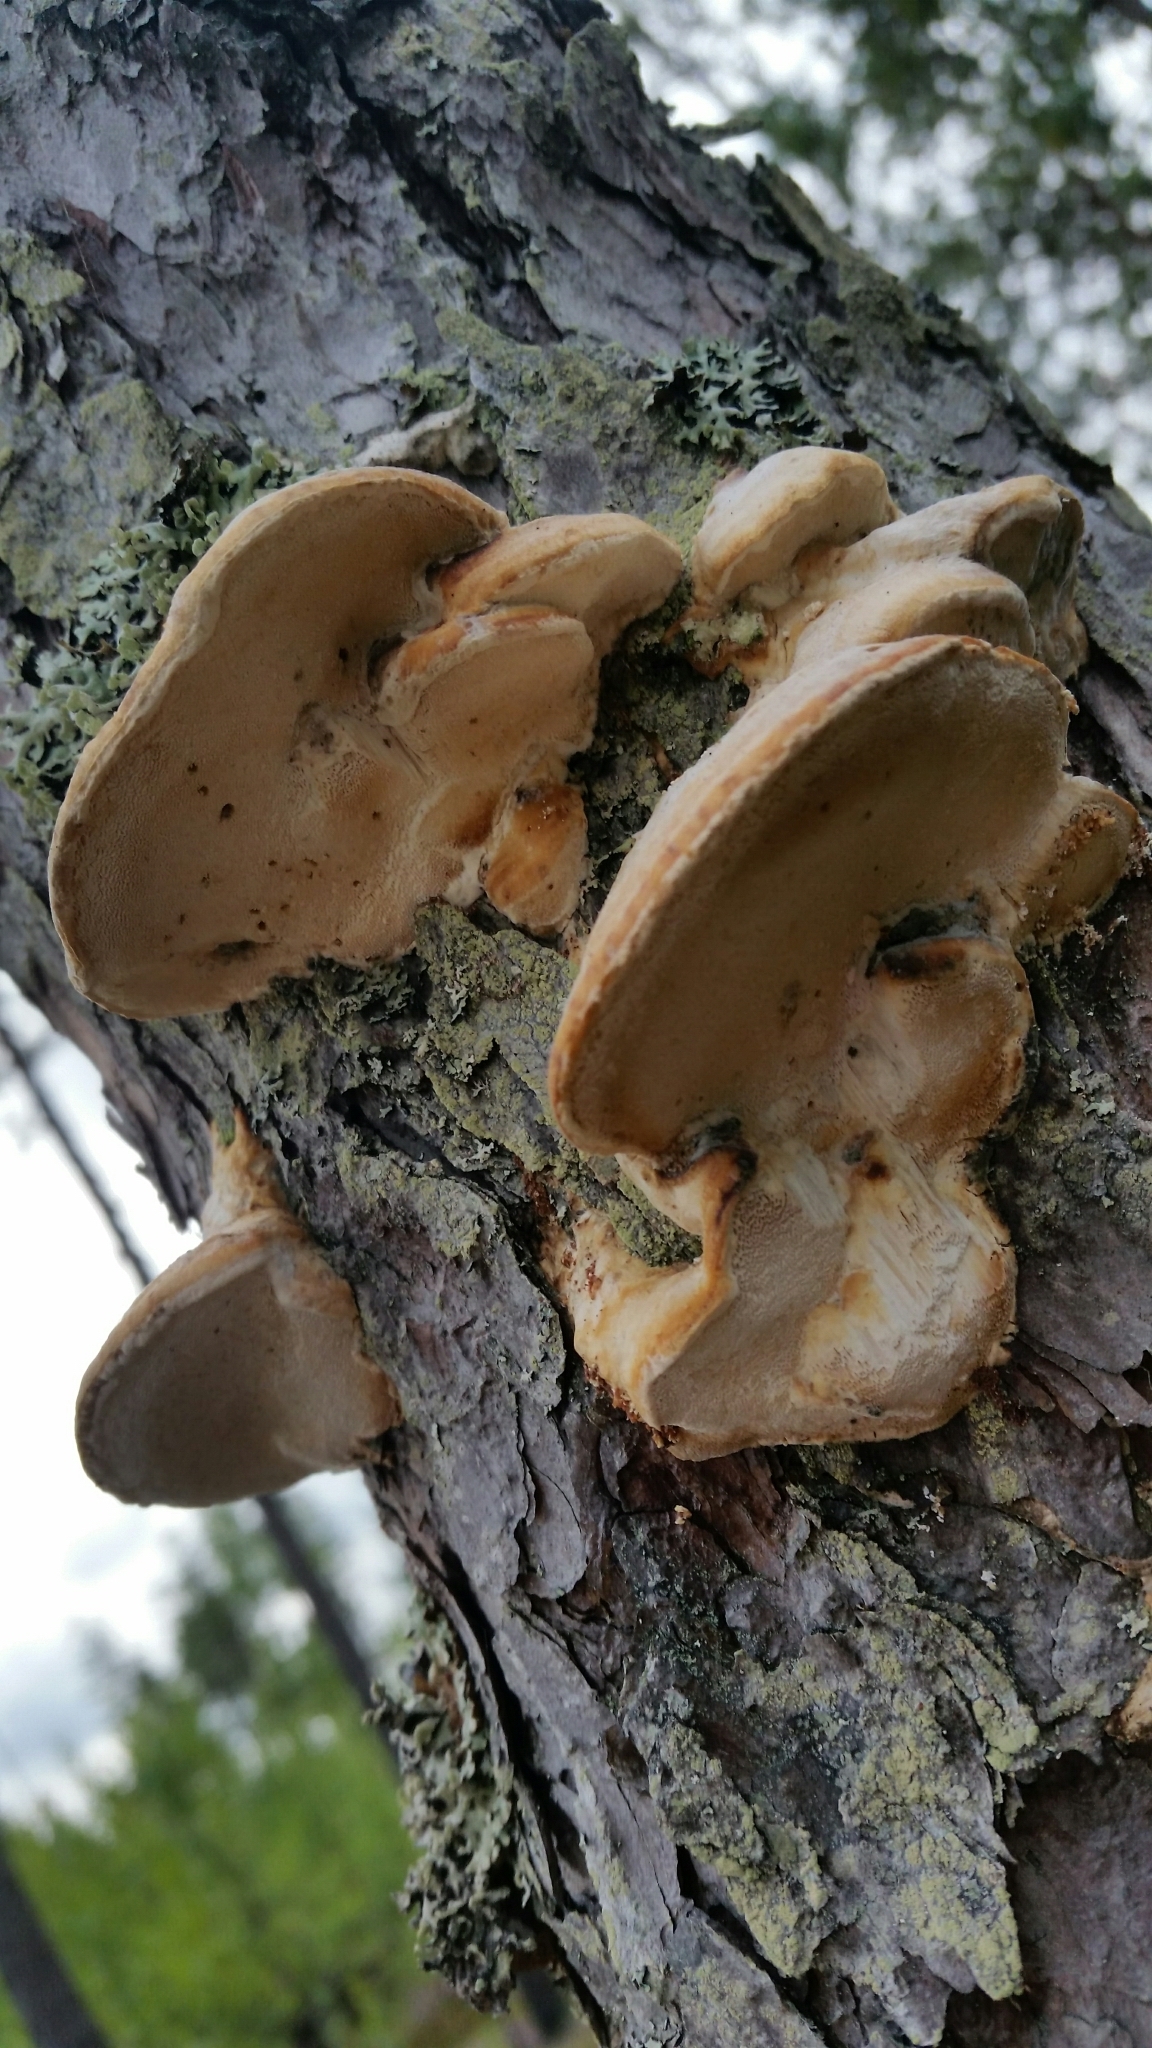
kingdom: Fungi
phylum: Basidiomycota
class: Agaricomycetes
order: Polyporales
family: Polyporaceae
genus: Diplomitoporus
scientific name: Diplomitoporus flavescens
